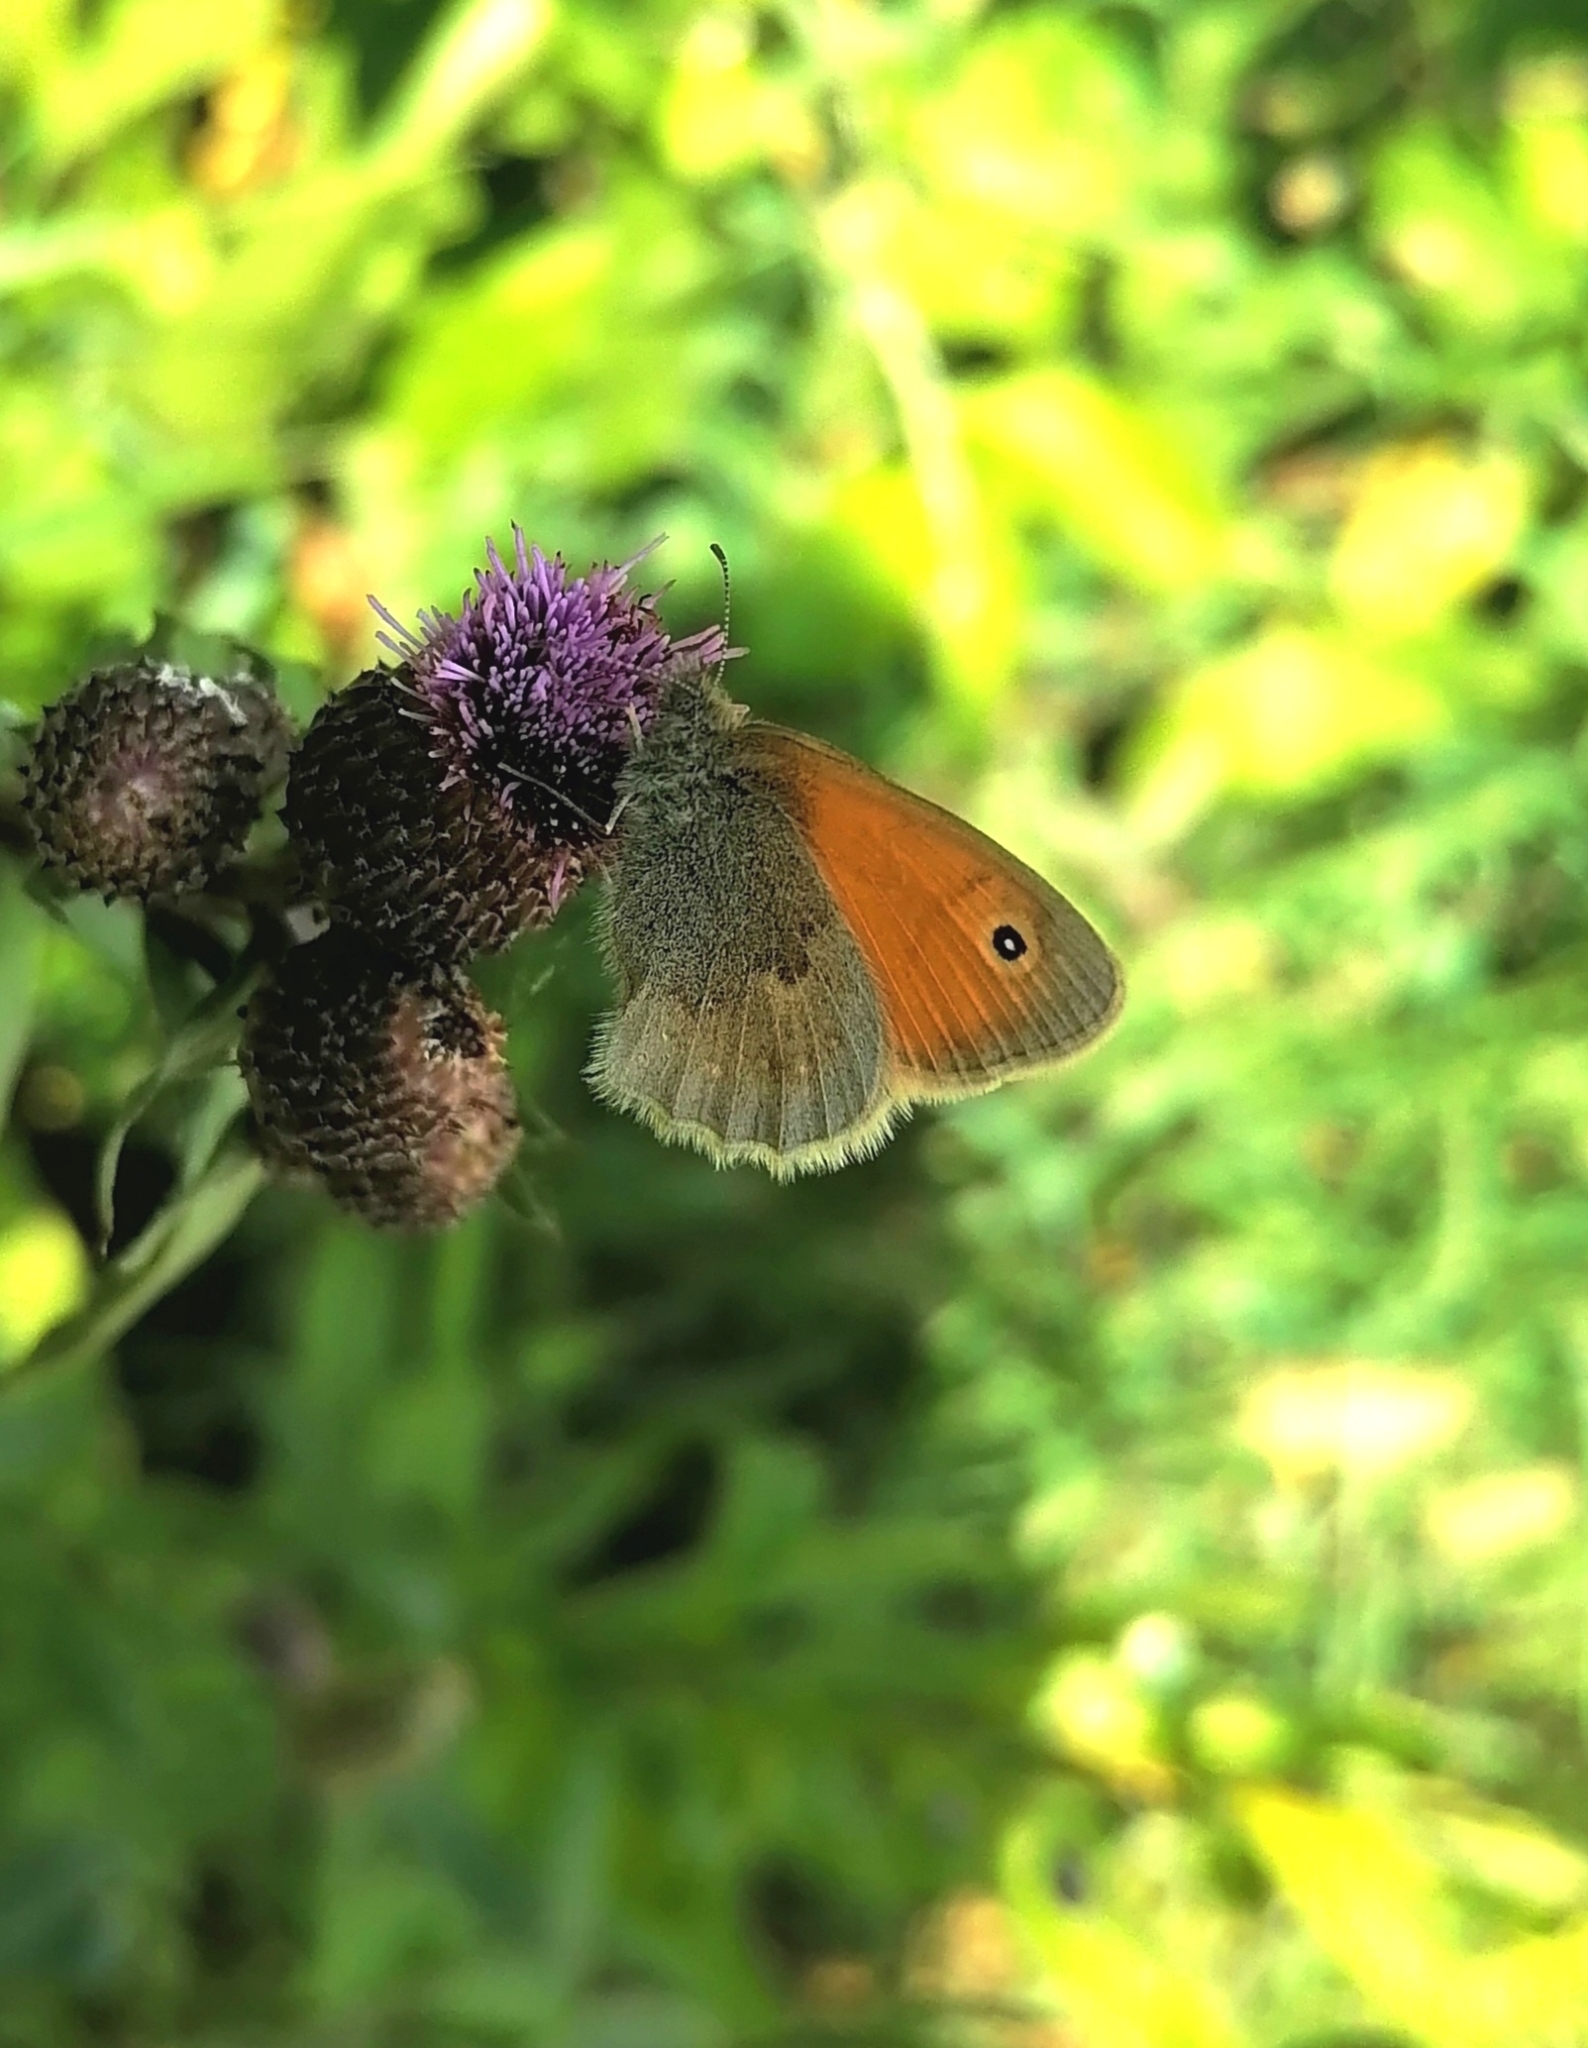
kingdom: Animalia
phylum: Arthropoda
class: Insecta
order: Lepidoptera
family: Nymphalidae
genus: Coenonympha
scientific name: Coenonympha pamphilus
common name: Small heath
